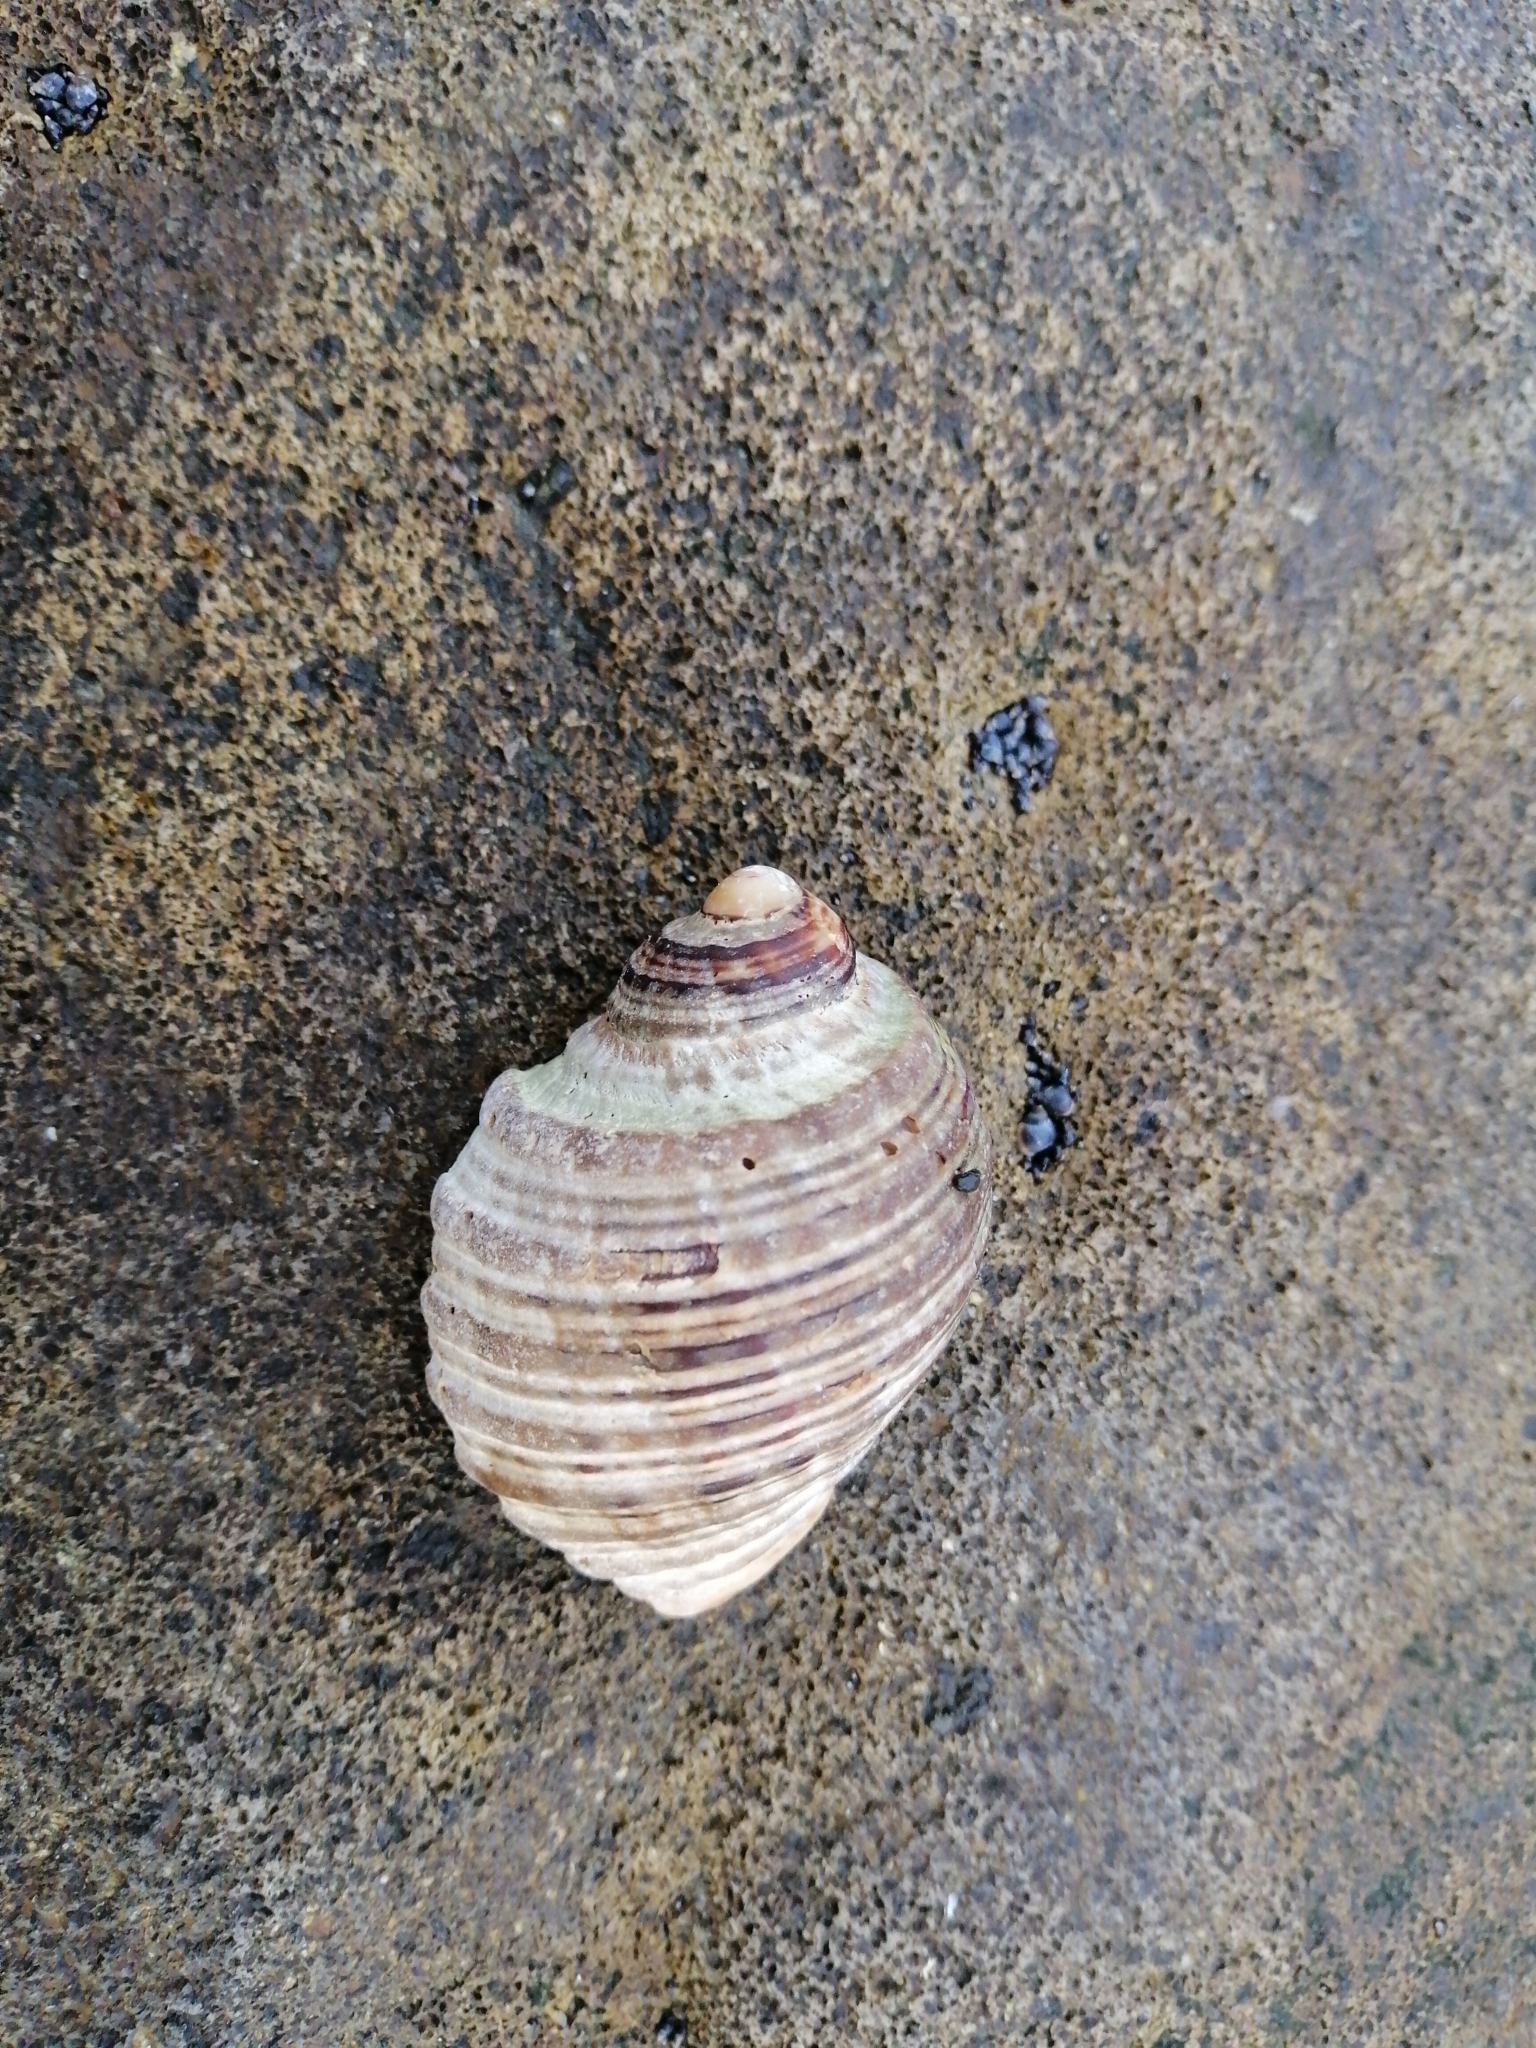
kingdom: Animalia
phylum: Mollusca
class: Gastropoda
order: Neogastropoda
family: Muricidae
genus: Dicathais
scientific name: Dicathais orbita
